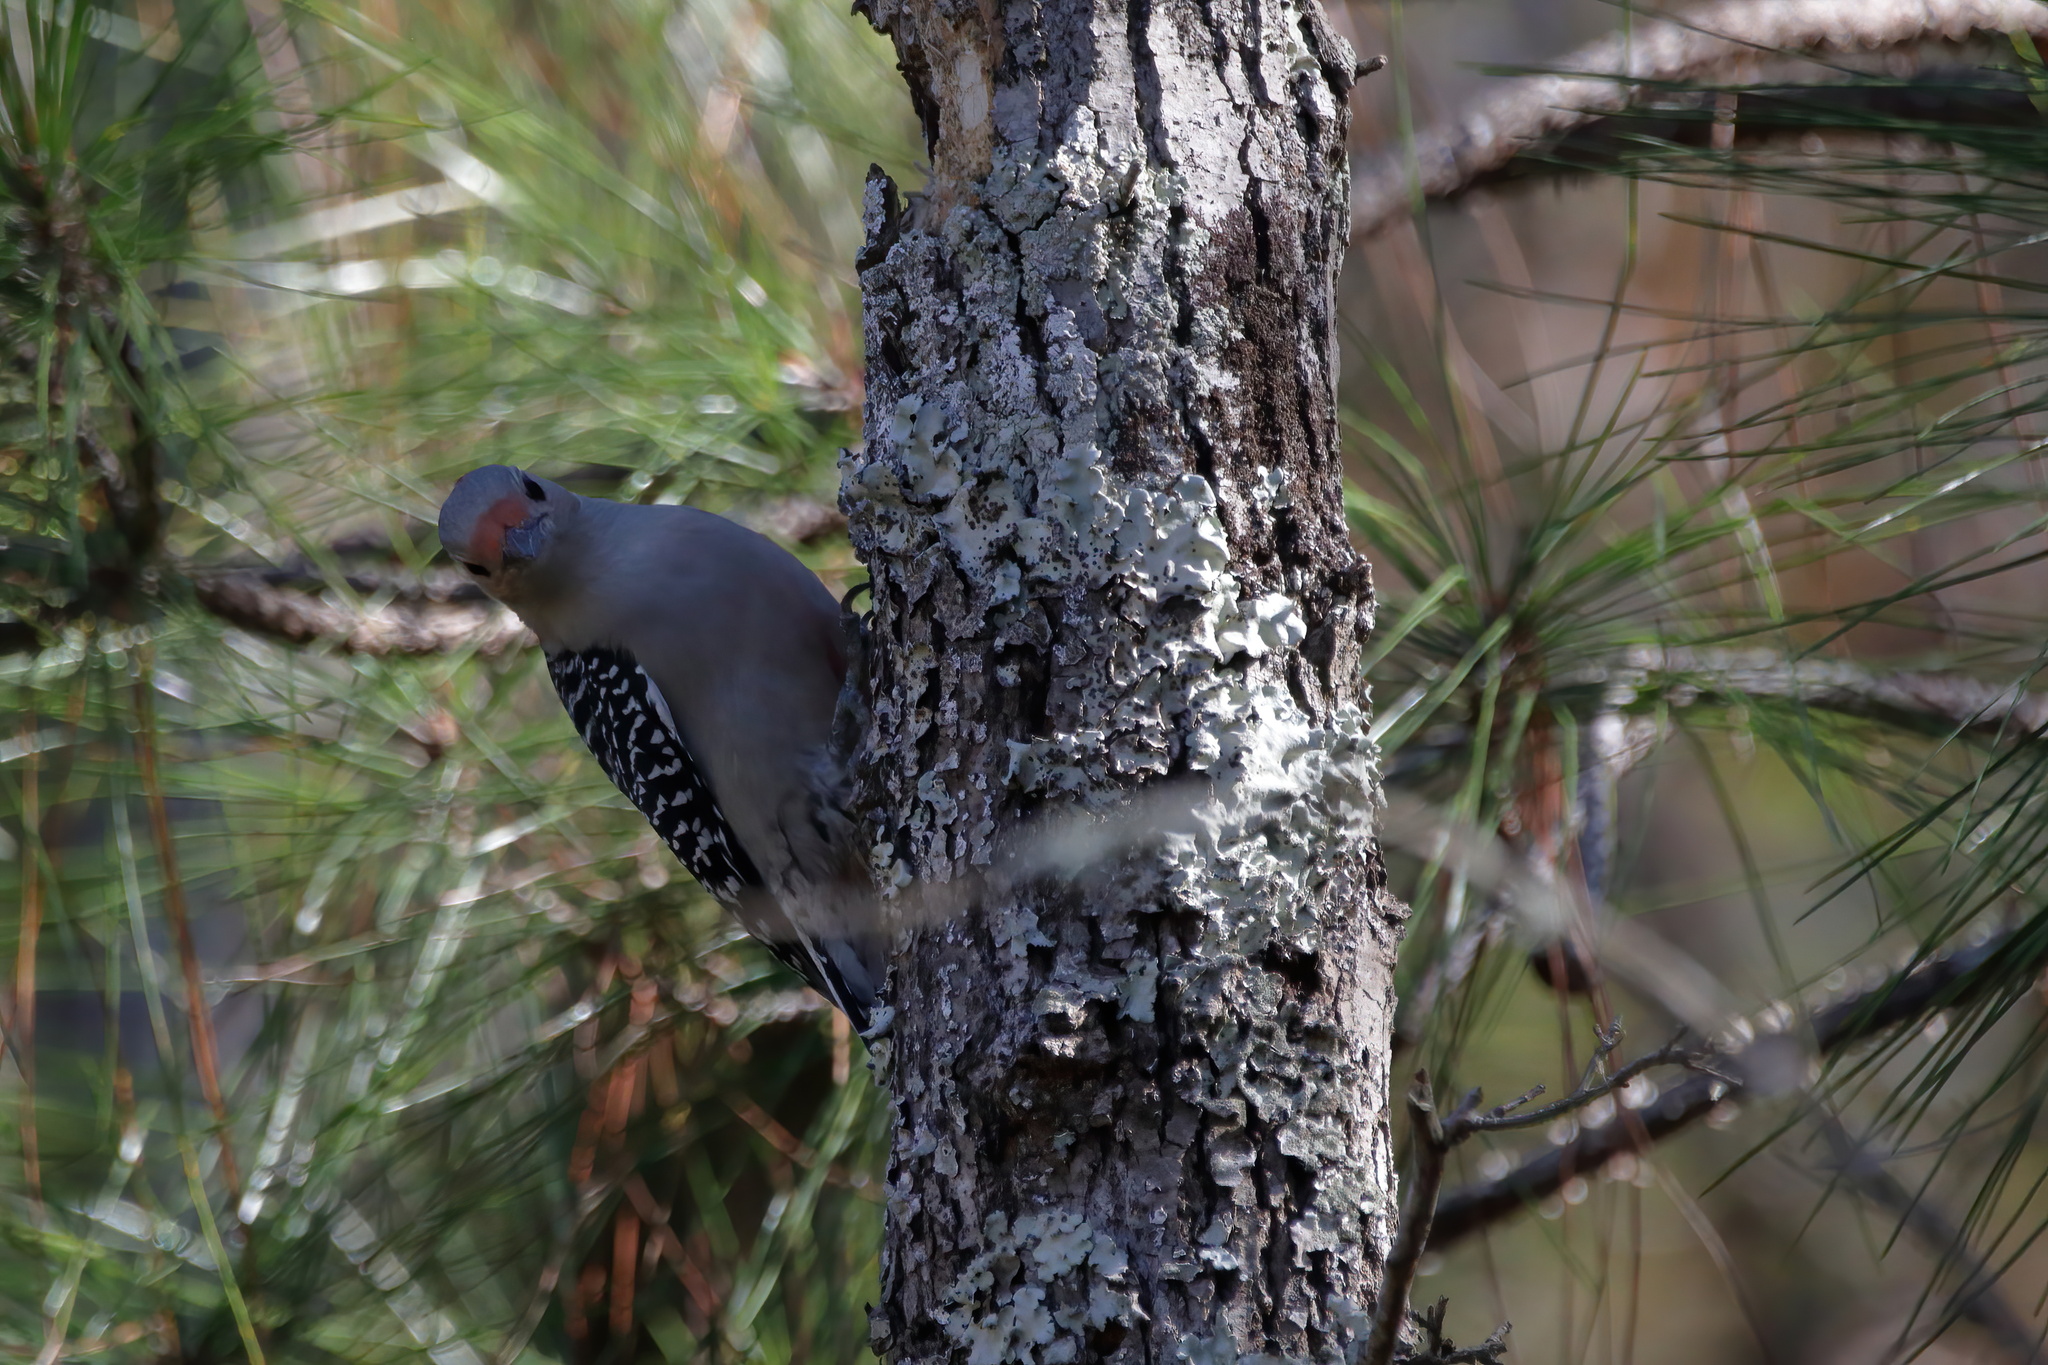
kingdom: Animalia
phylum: Chordata
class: Aves
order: Piciformes
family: Picidae
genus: Melanerpes
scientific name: Melanerpes carolinus
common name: Red-bellied woodpecker
